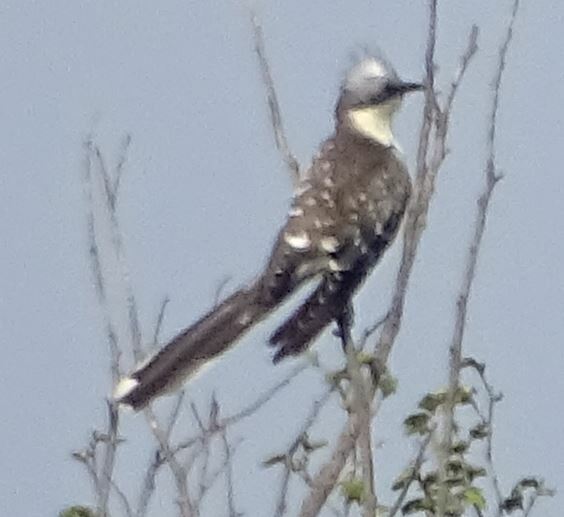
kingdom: Animalia
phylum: Chordata
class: Aves
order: Cuculiformes
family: Cuculidae
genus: Clamator
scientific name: Clamator glandarius
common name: Great spotted cuckoo
